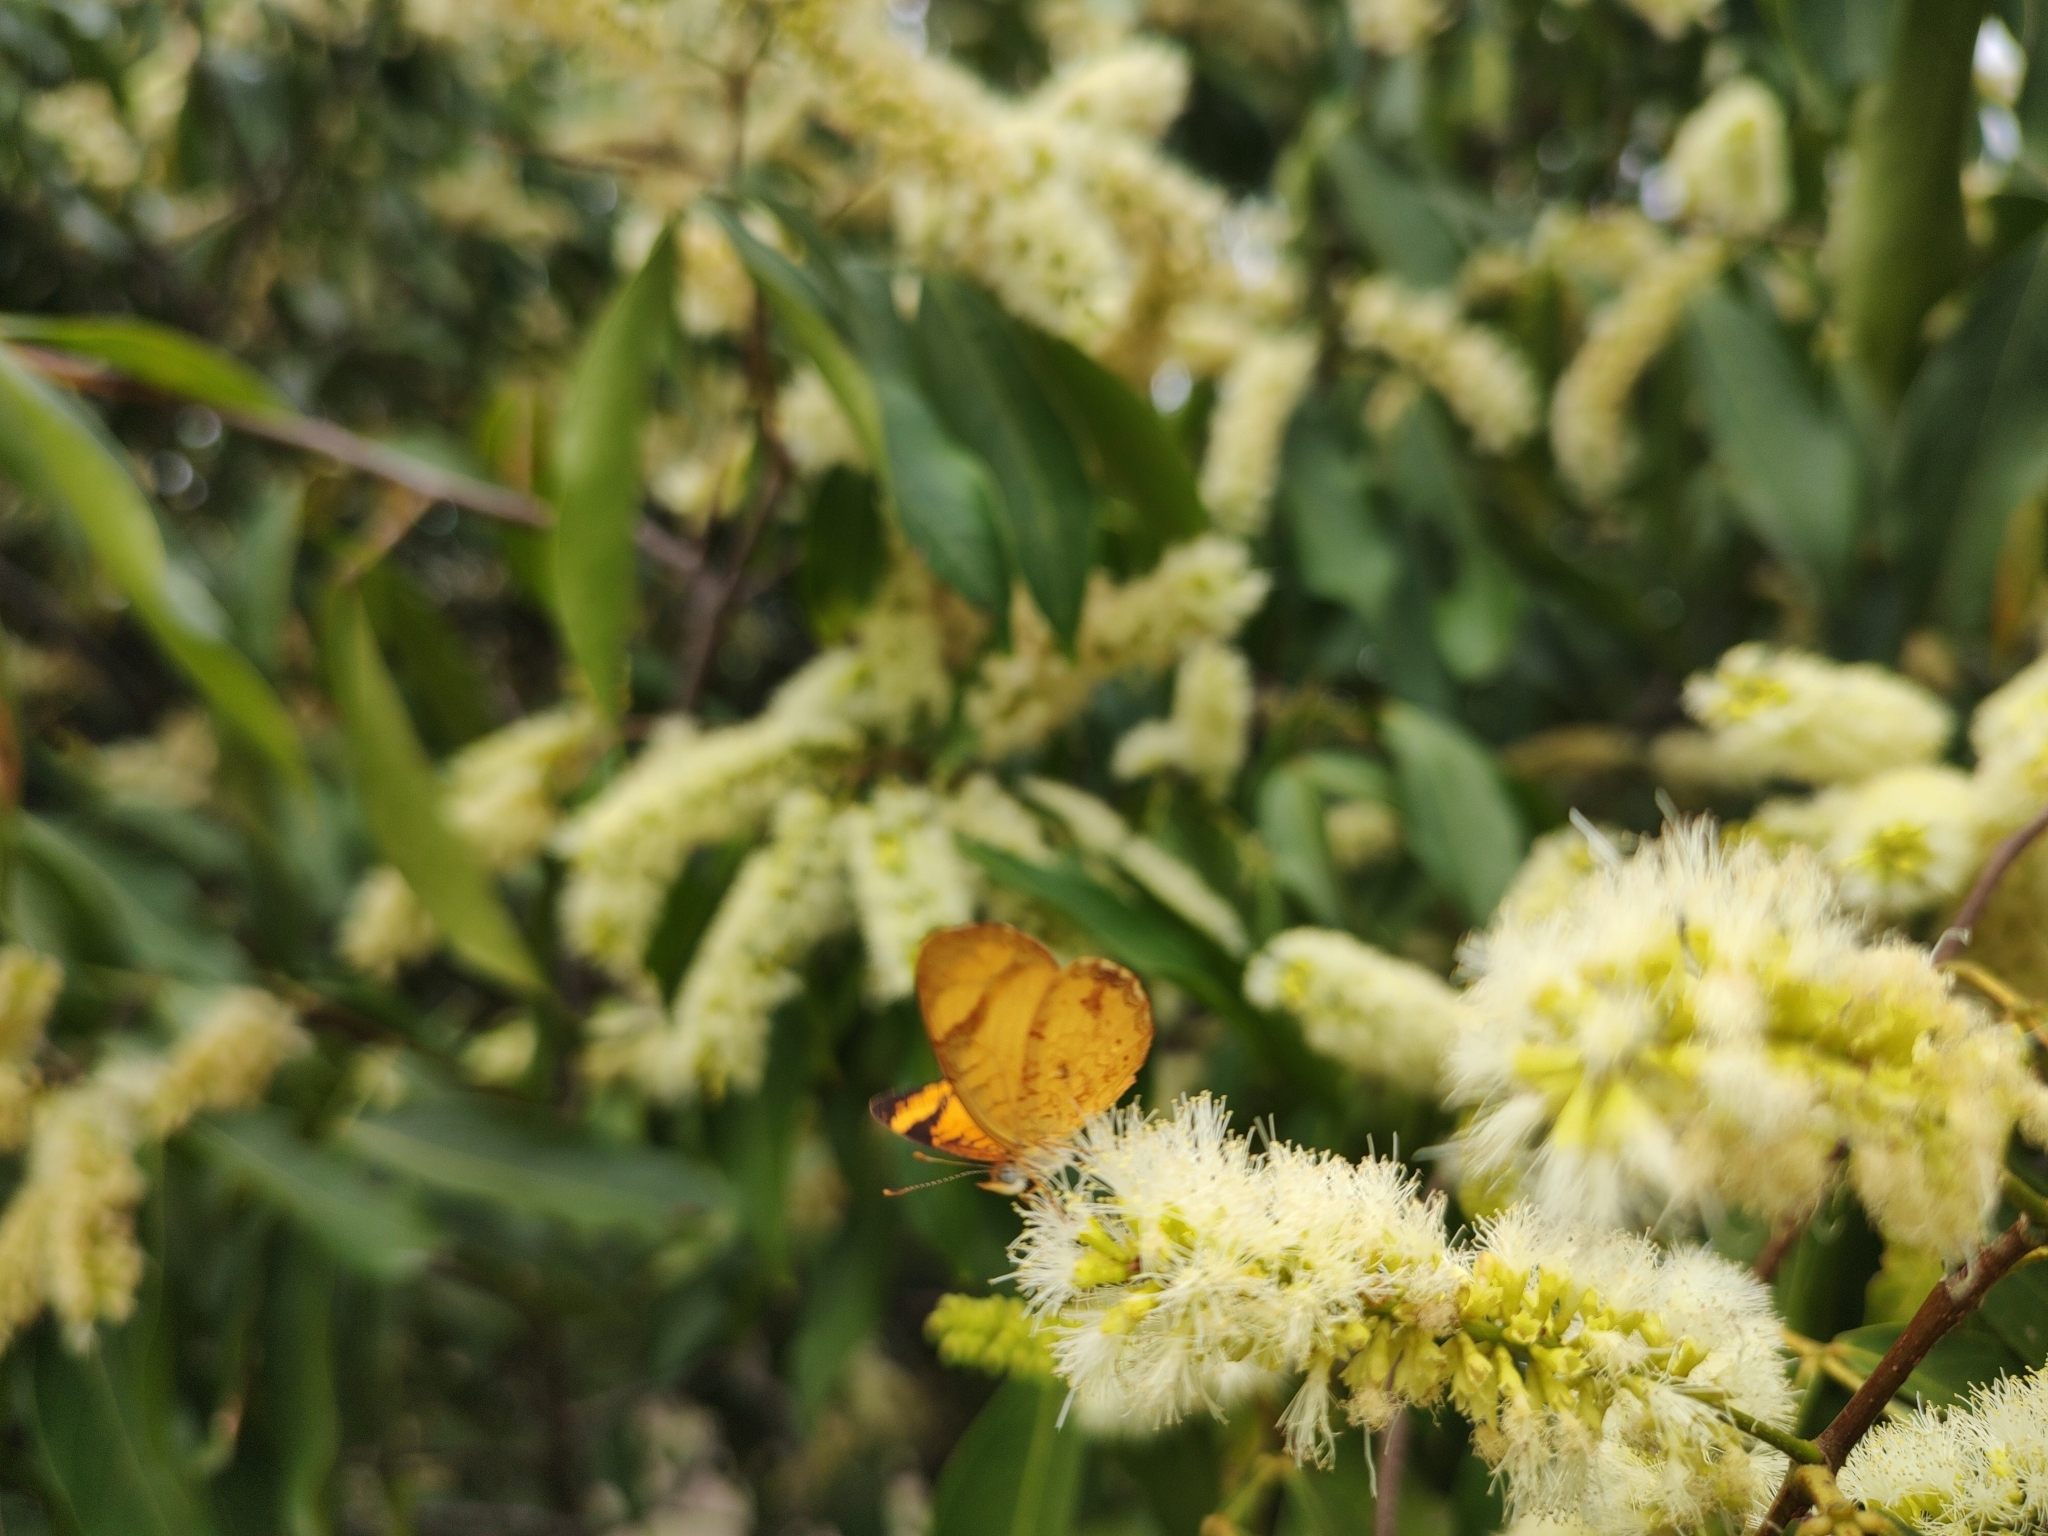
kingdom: Animalia
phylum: Arthropoda
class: Insecta
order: Lepidoptera
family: Nymphalidae
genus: Tegosa
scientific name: Tegosa claudina
